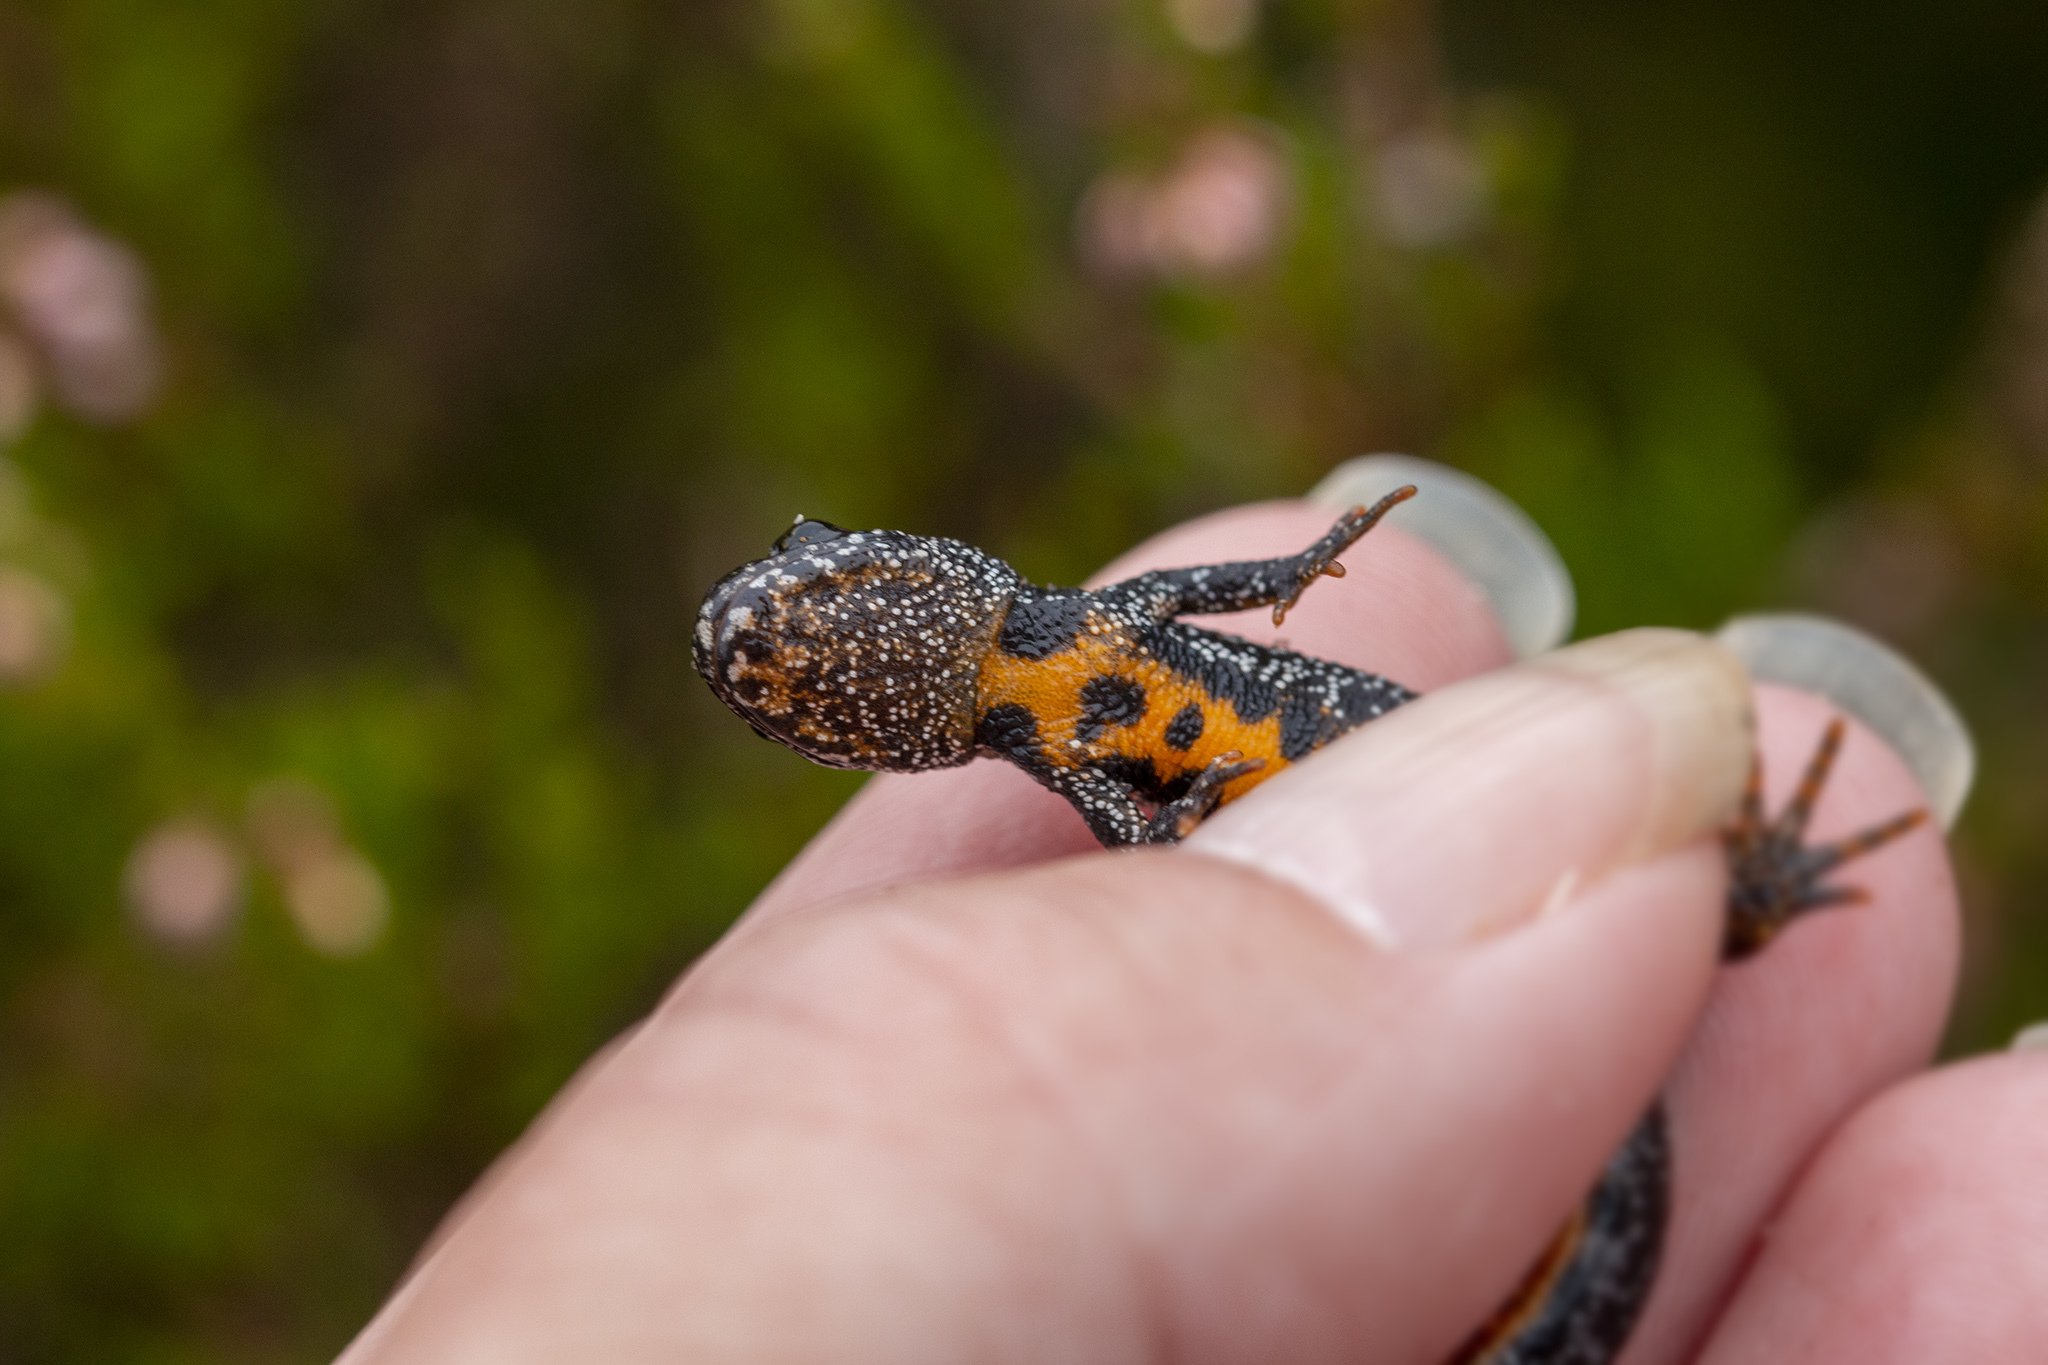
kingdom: Animalia
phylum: Chordata
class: Amphibia
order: Caudata
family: Salamandridae
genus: Triturus
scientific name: Triturus cristatus
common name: Crested newt
